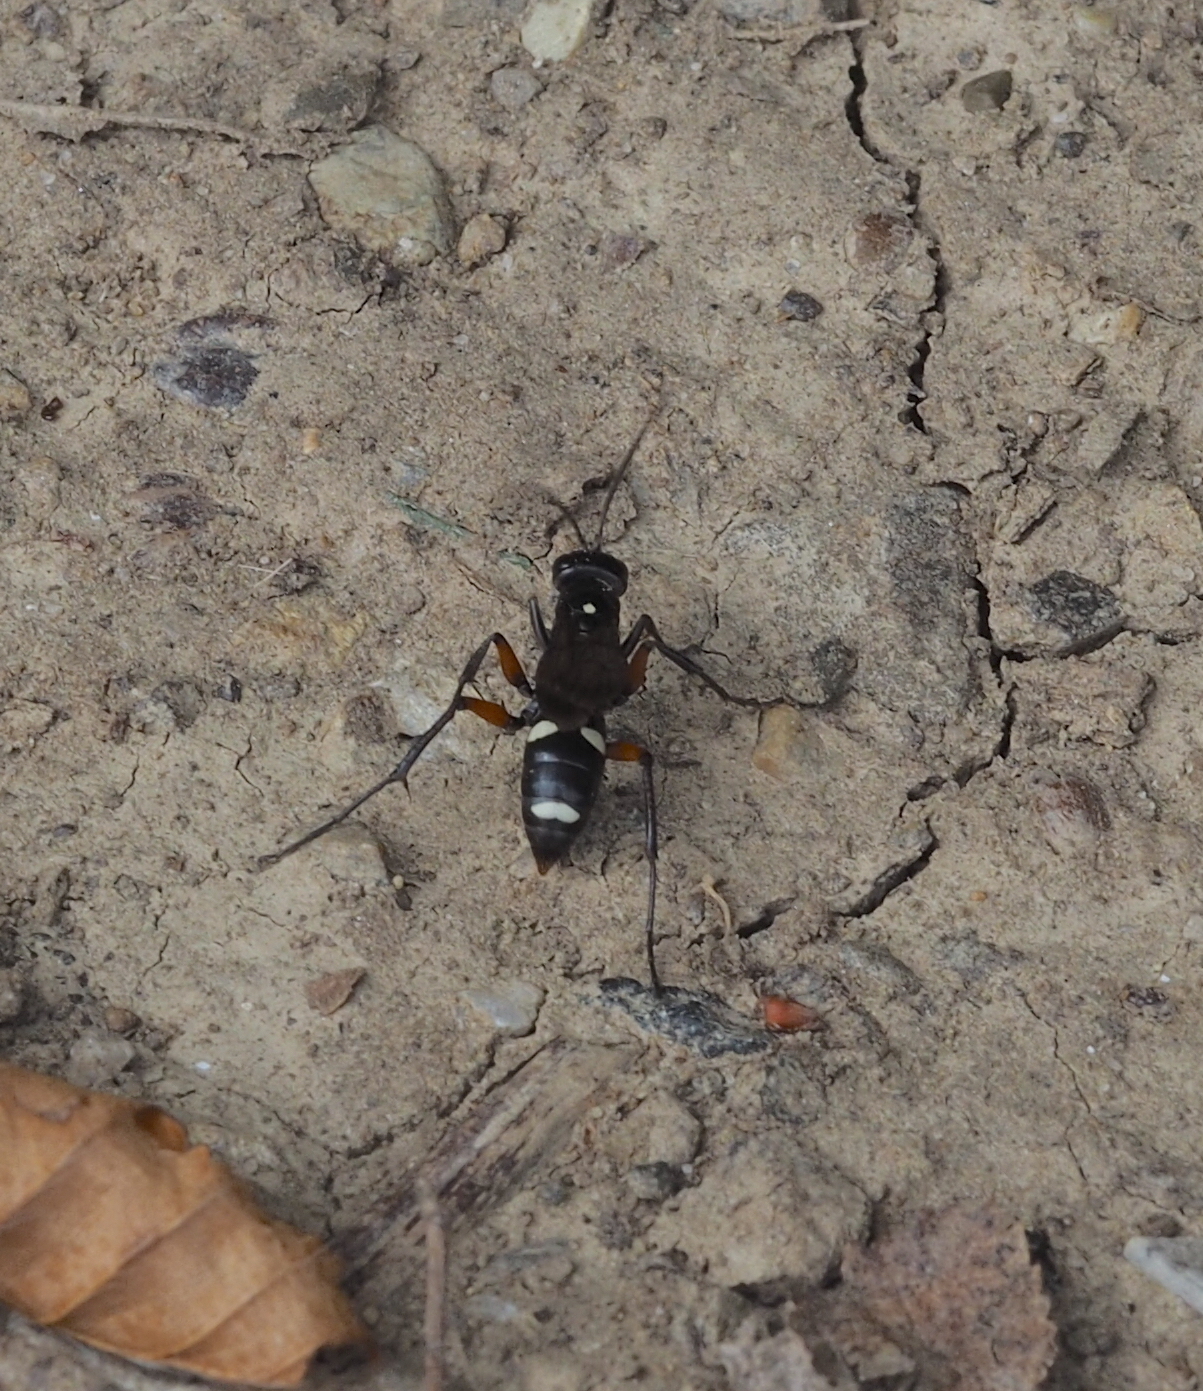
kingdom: Animalia
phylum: Arthropoda
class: Insecta
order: Hymenoptera
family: Pompilidae
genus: Cryptocheilus
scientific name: Cryptocheilus versicolor
